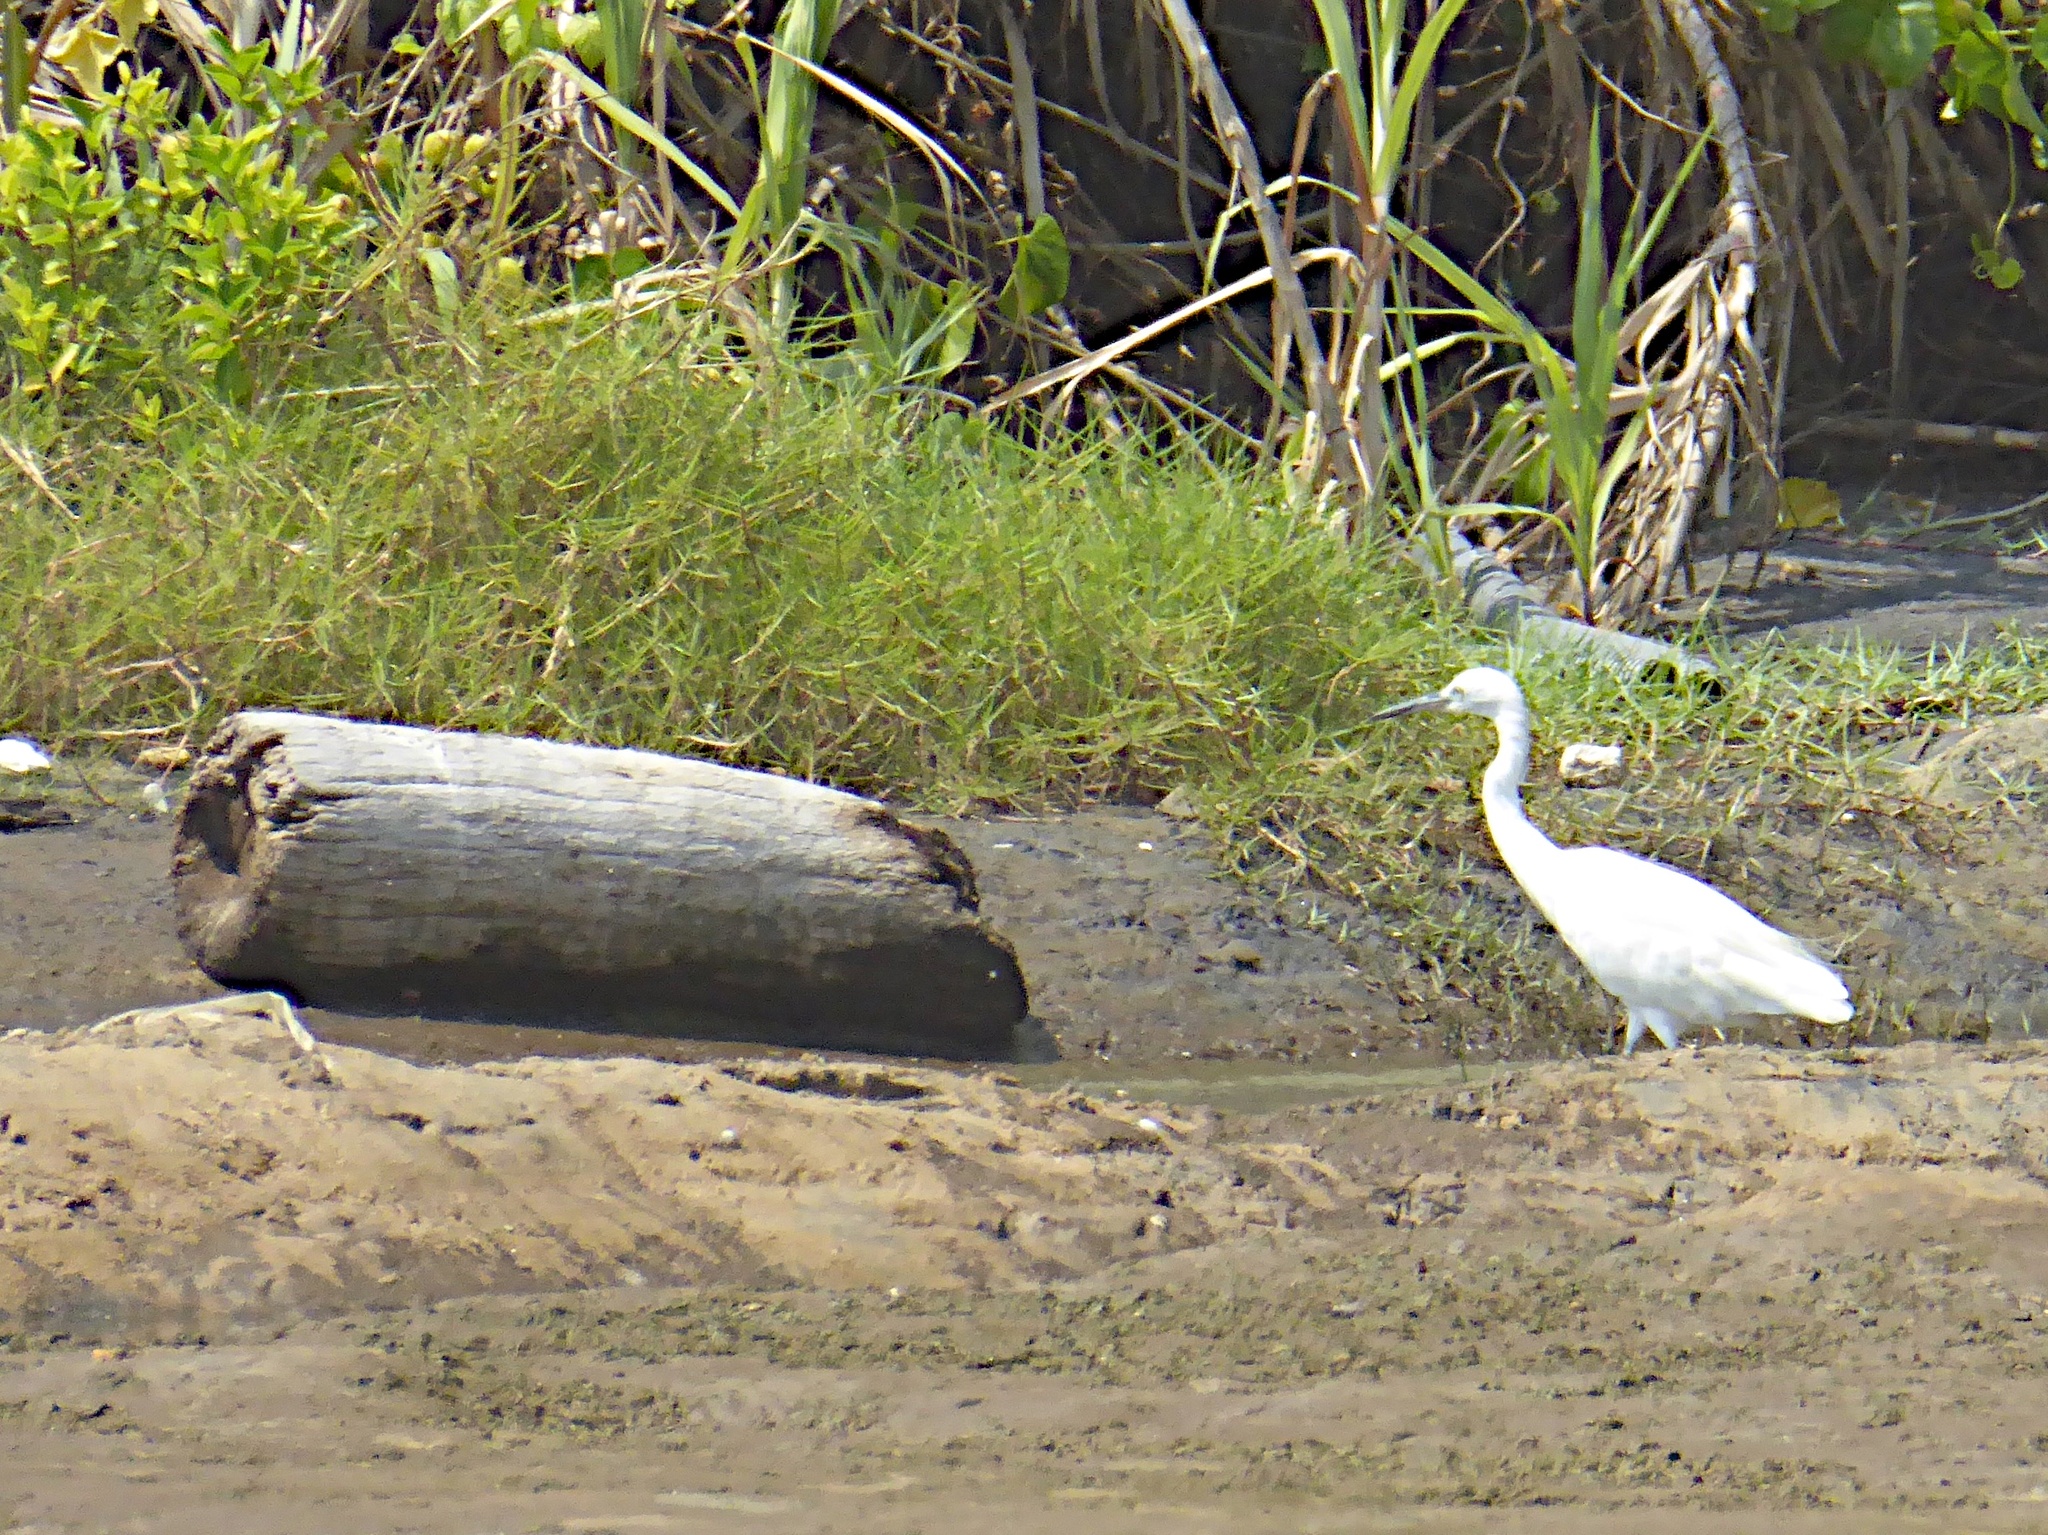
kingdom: Animalia
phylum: Chordata
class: Aves
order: Pelecaniformes
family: Ardeidae
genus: Egretta
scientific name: Egretta garzetta
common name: Little egret
